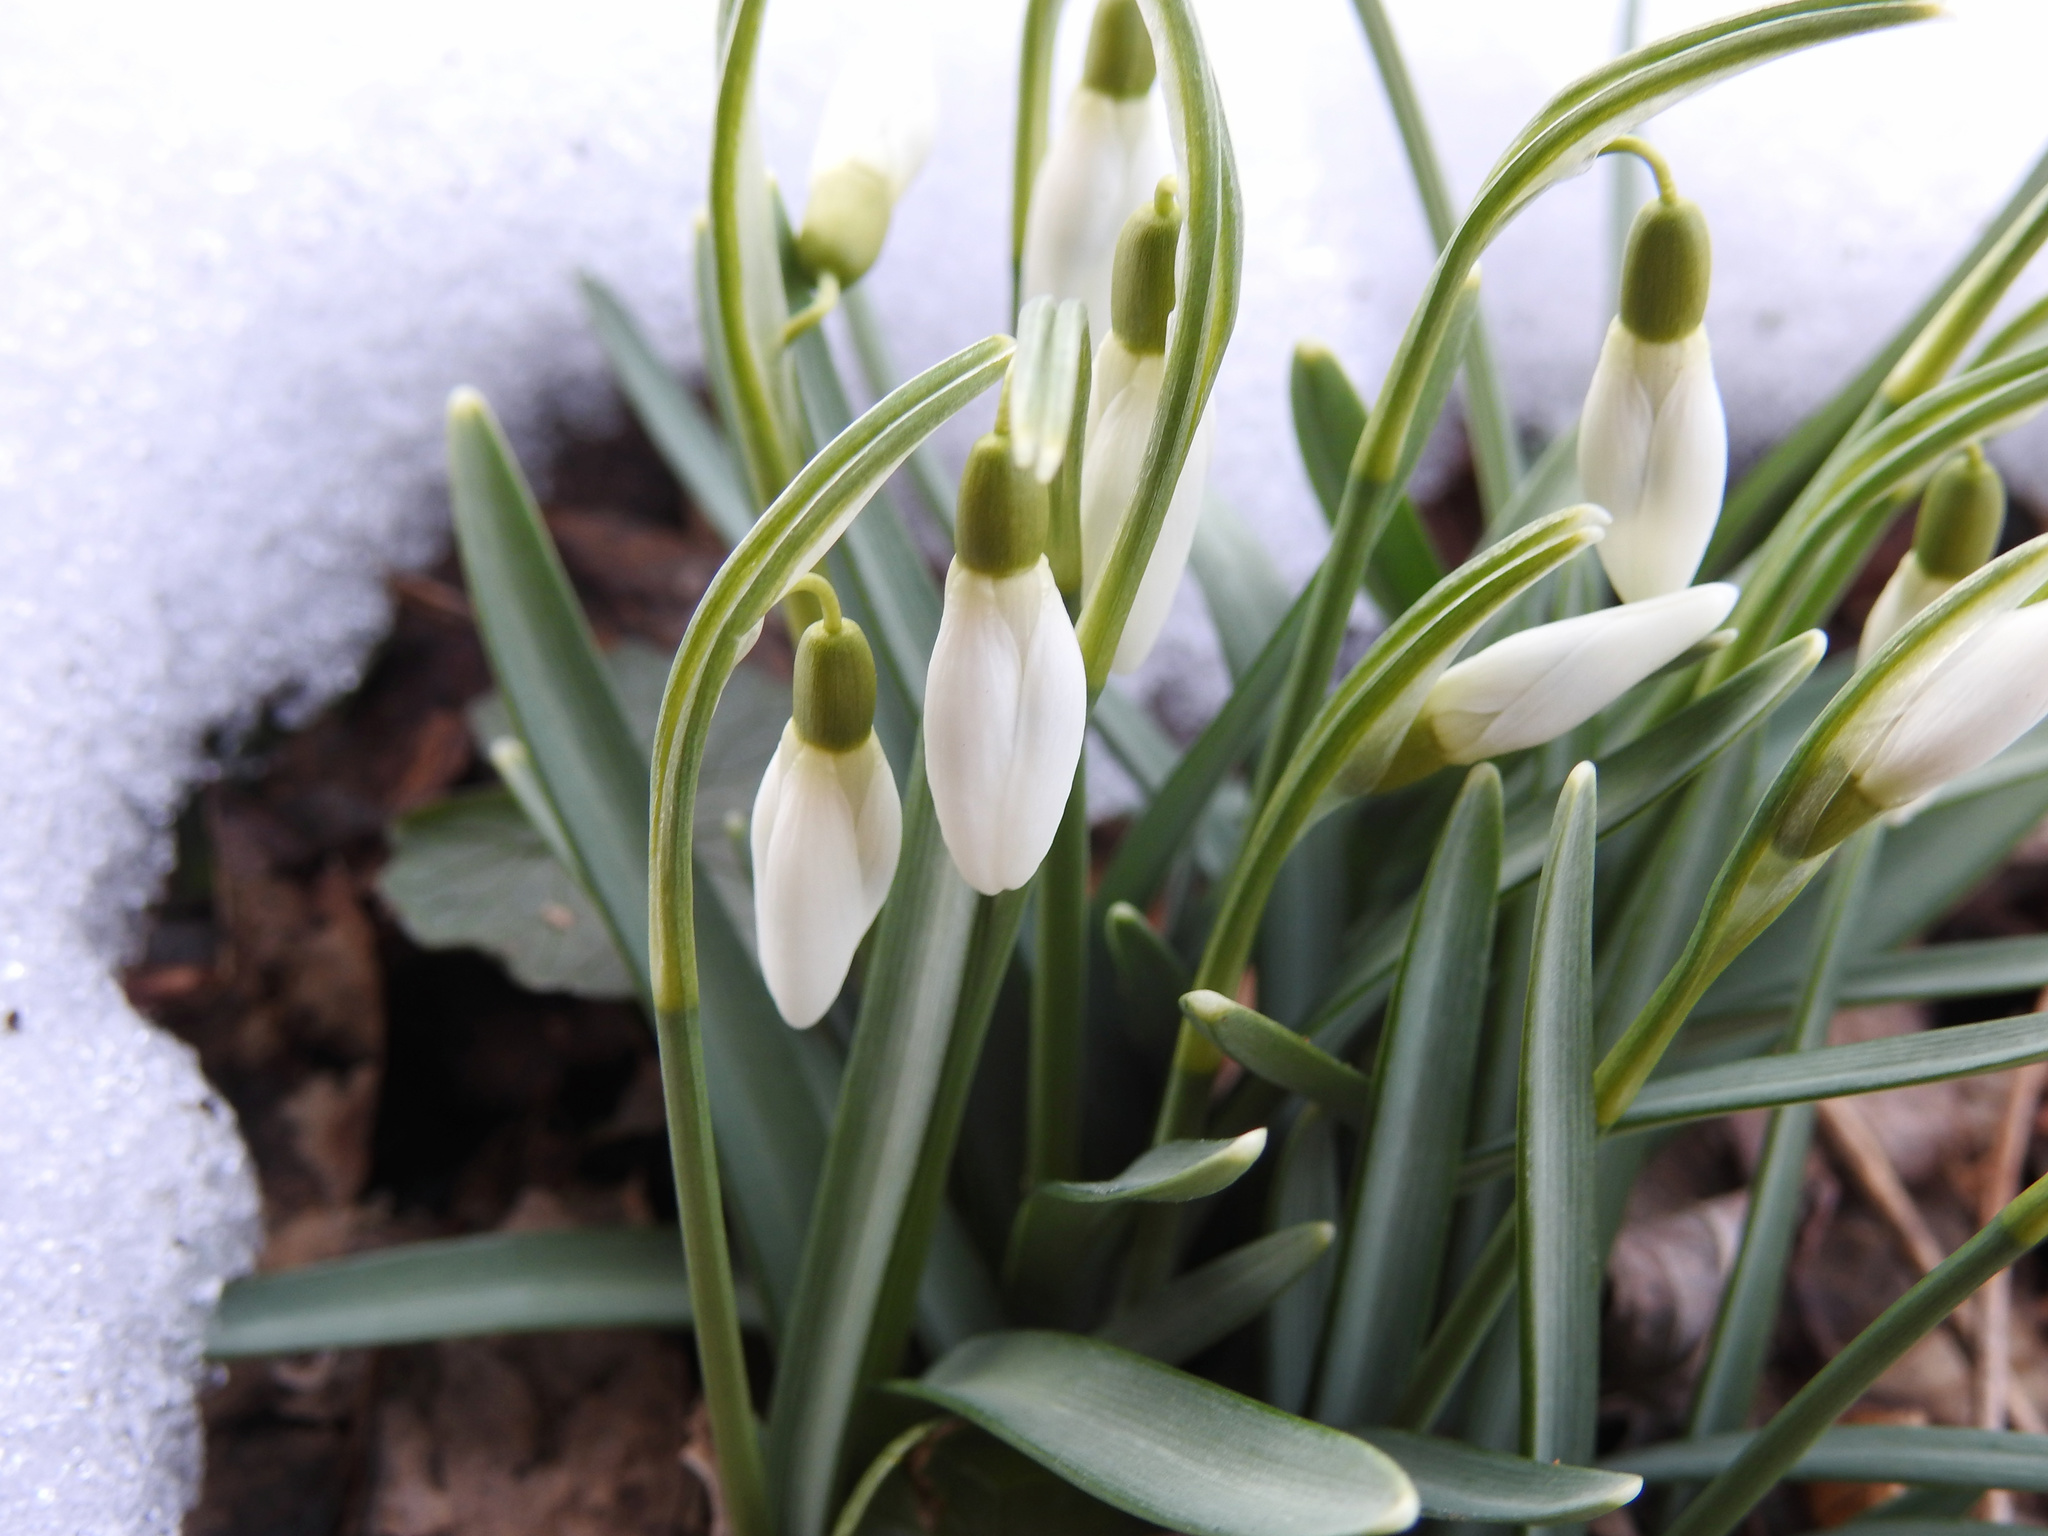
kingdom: Plantae
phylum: Tracheophyta
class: Liliopsida
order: Asparagales
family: Amaryllidaceae
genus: Galanthus
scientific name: Galanthus nivalis
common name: Snowdrop
